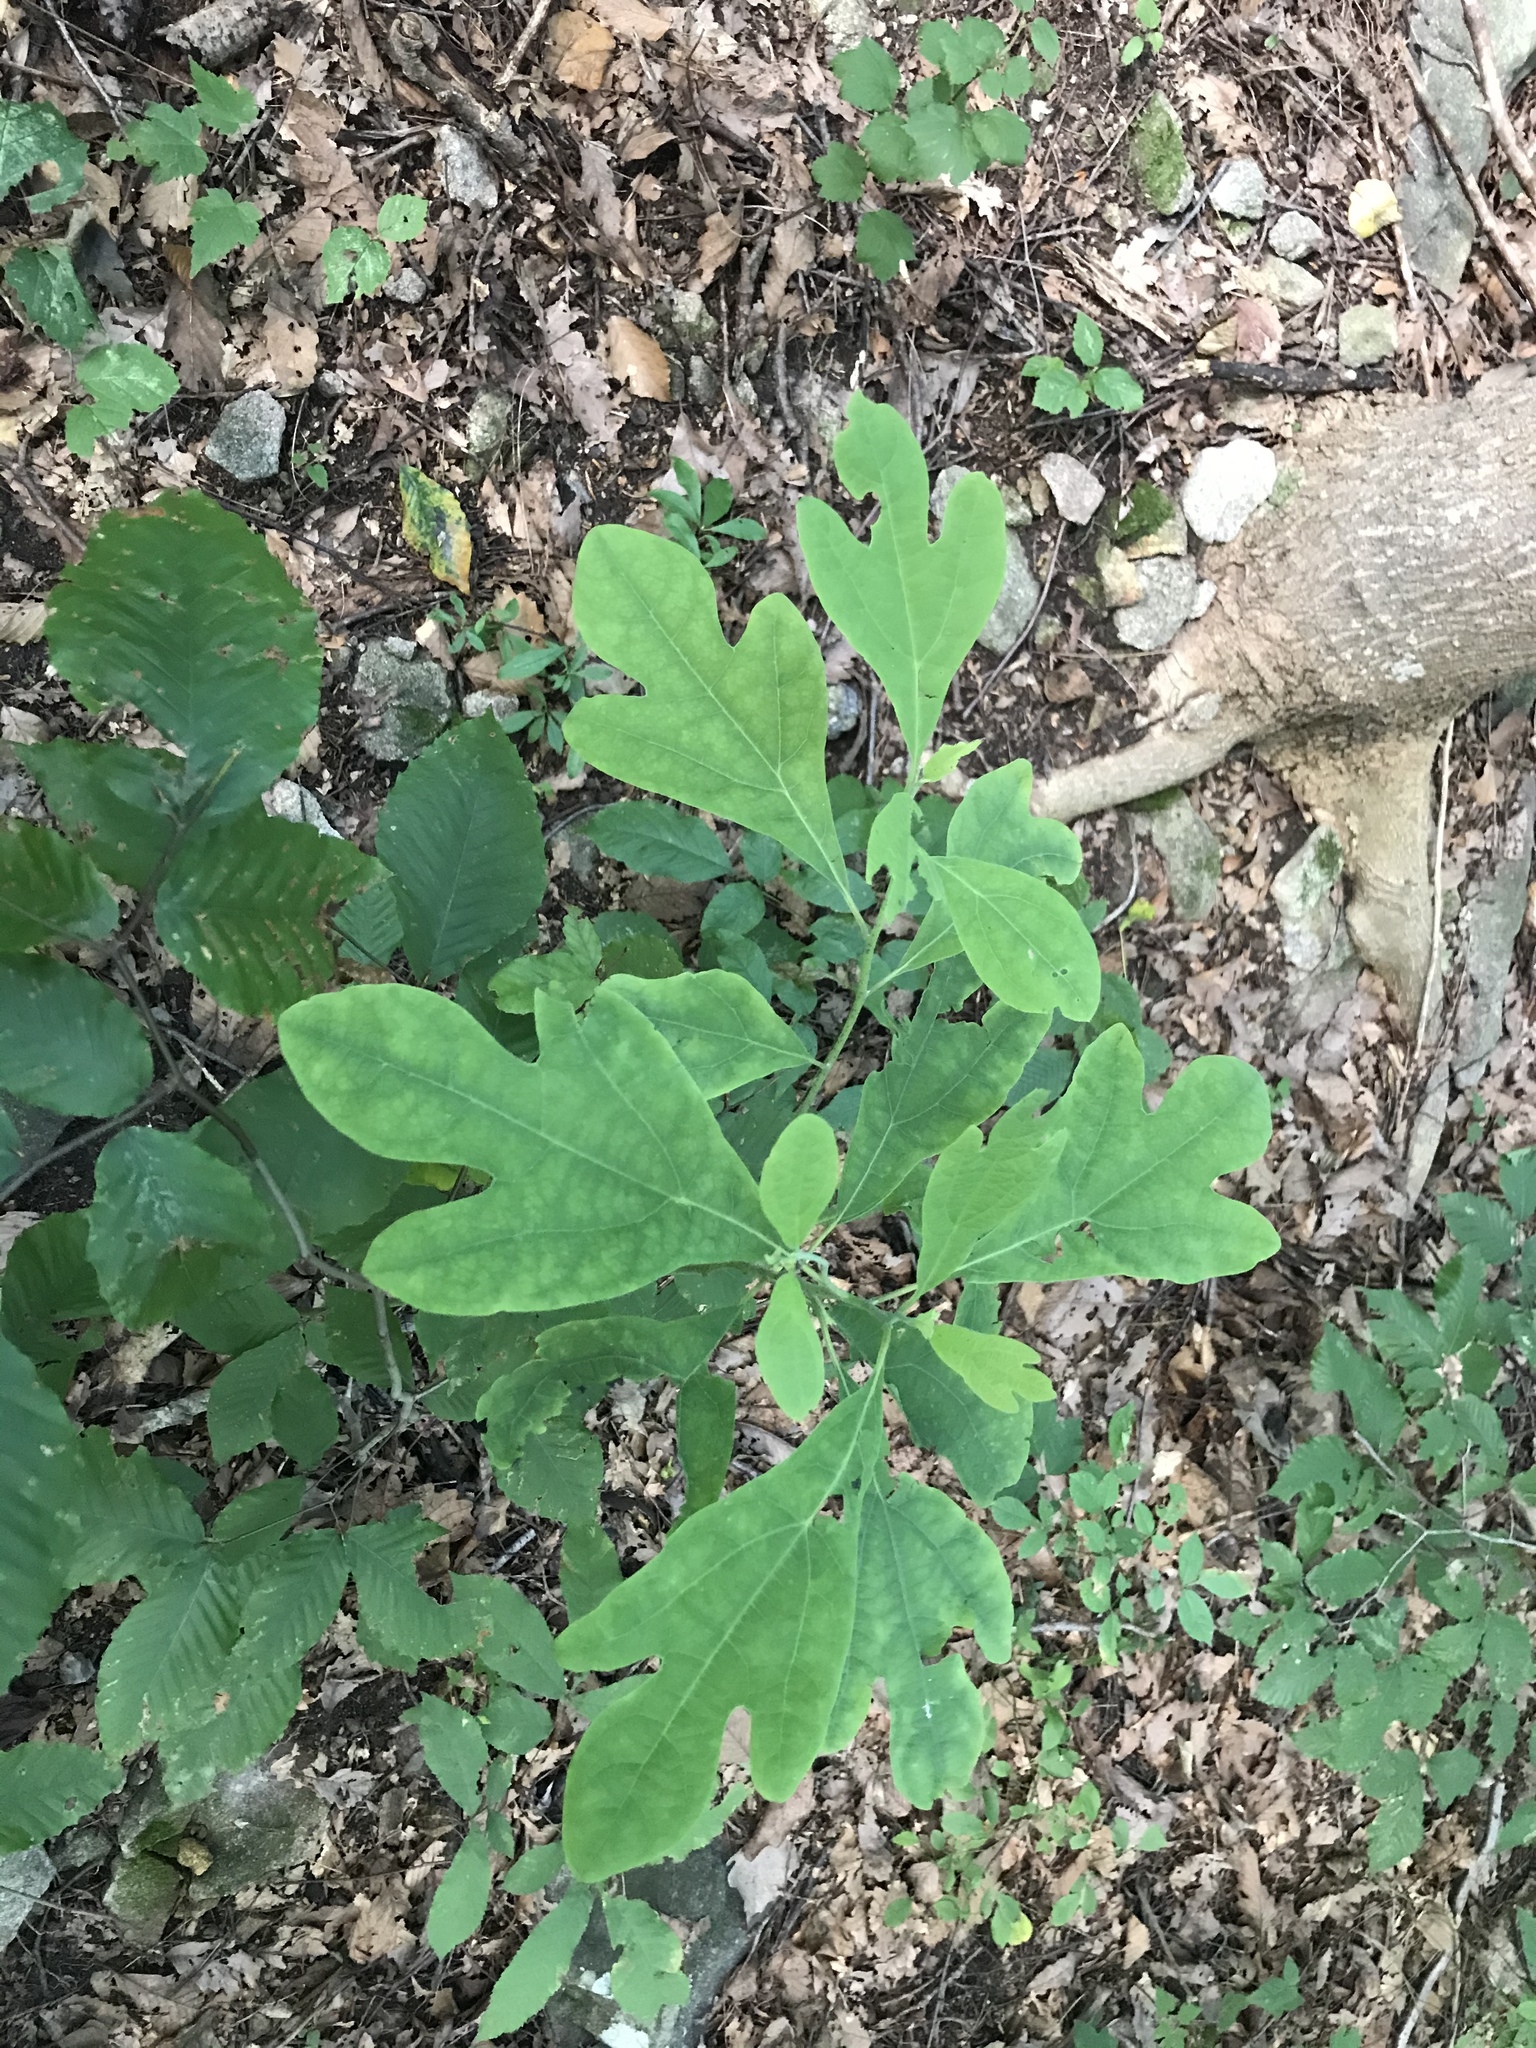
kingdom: Plantae
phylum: Tracheophyta
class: Magnoliopsida
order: Laurales
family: Lauraceae
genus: Sassafras
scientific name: Sassafras albidum
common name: Sassafras
